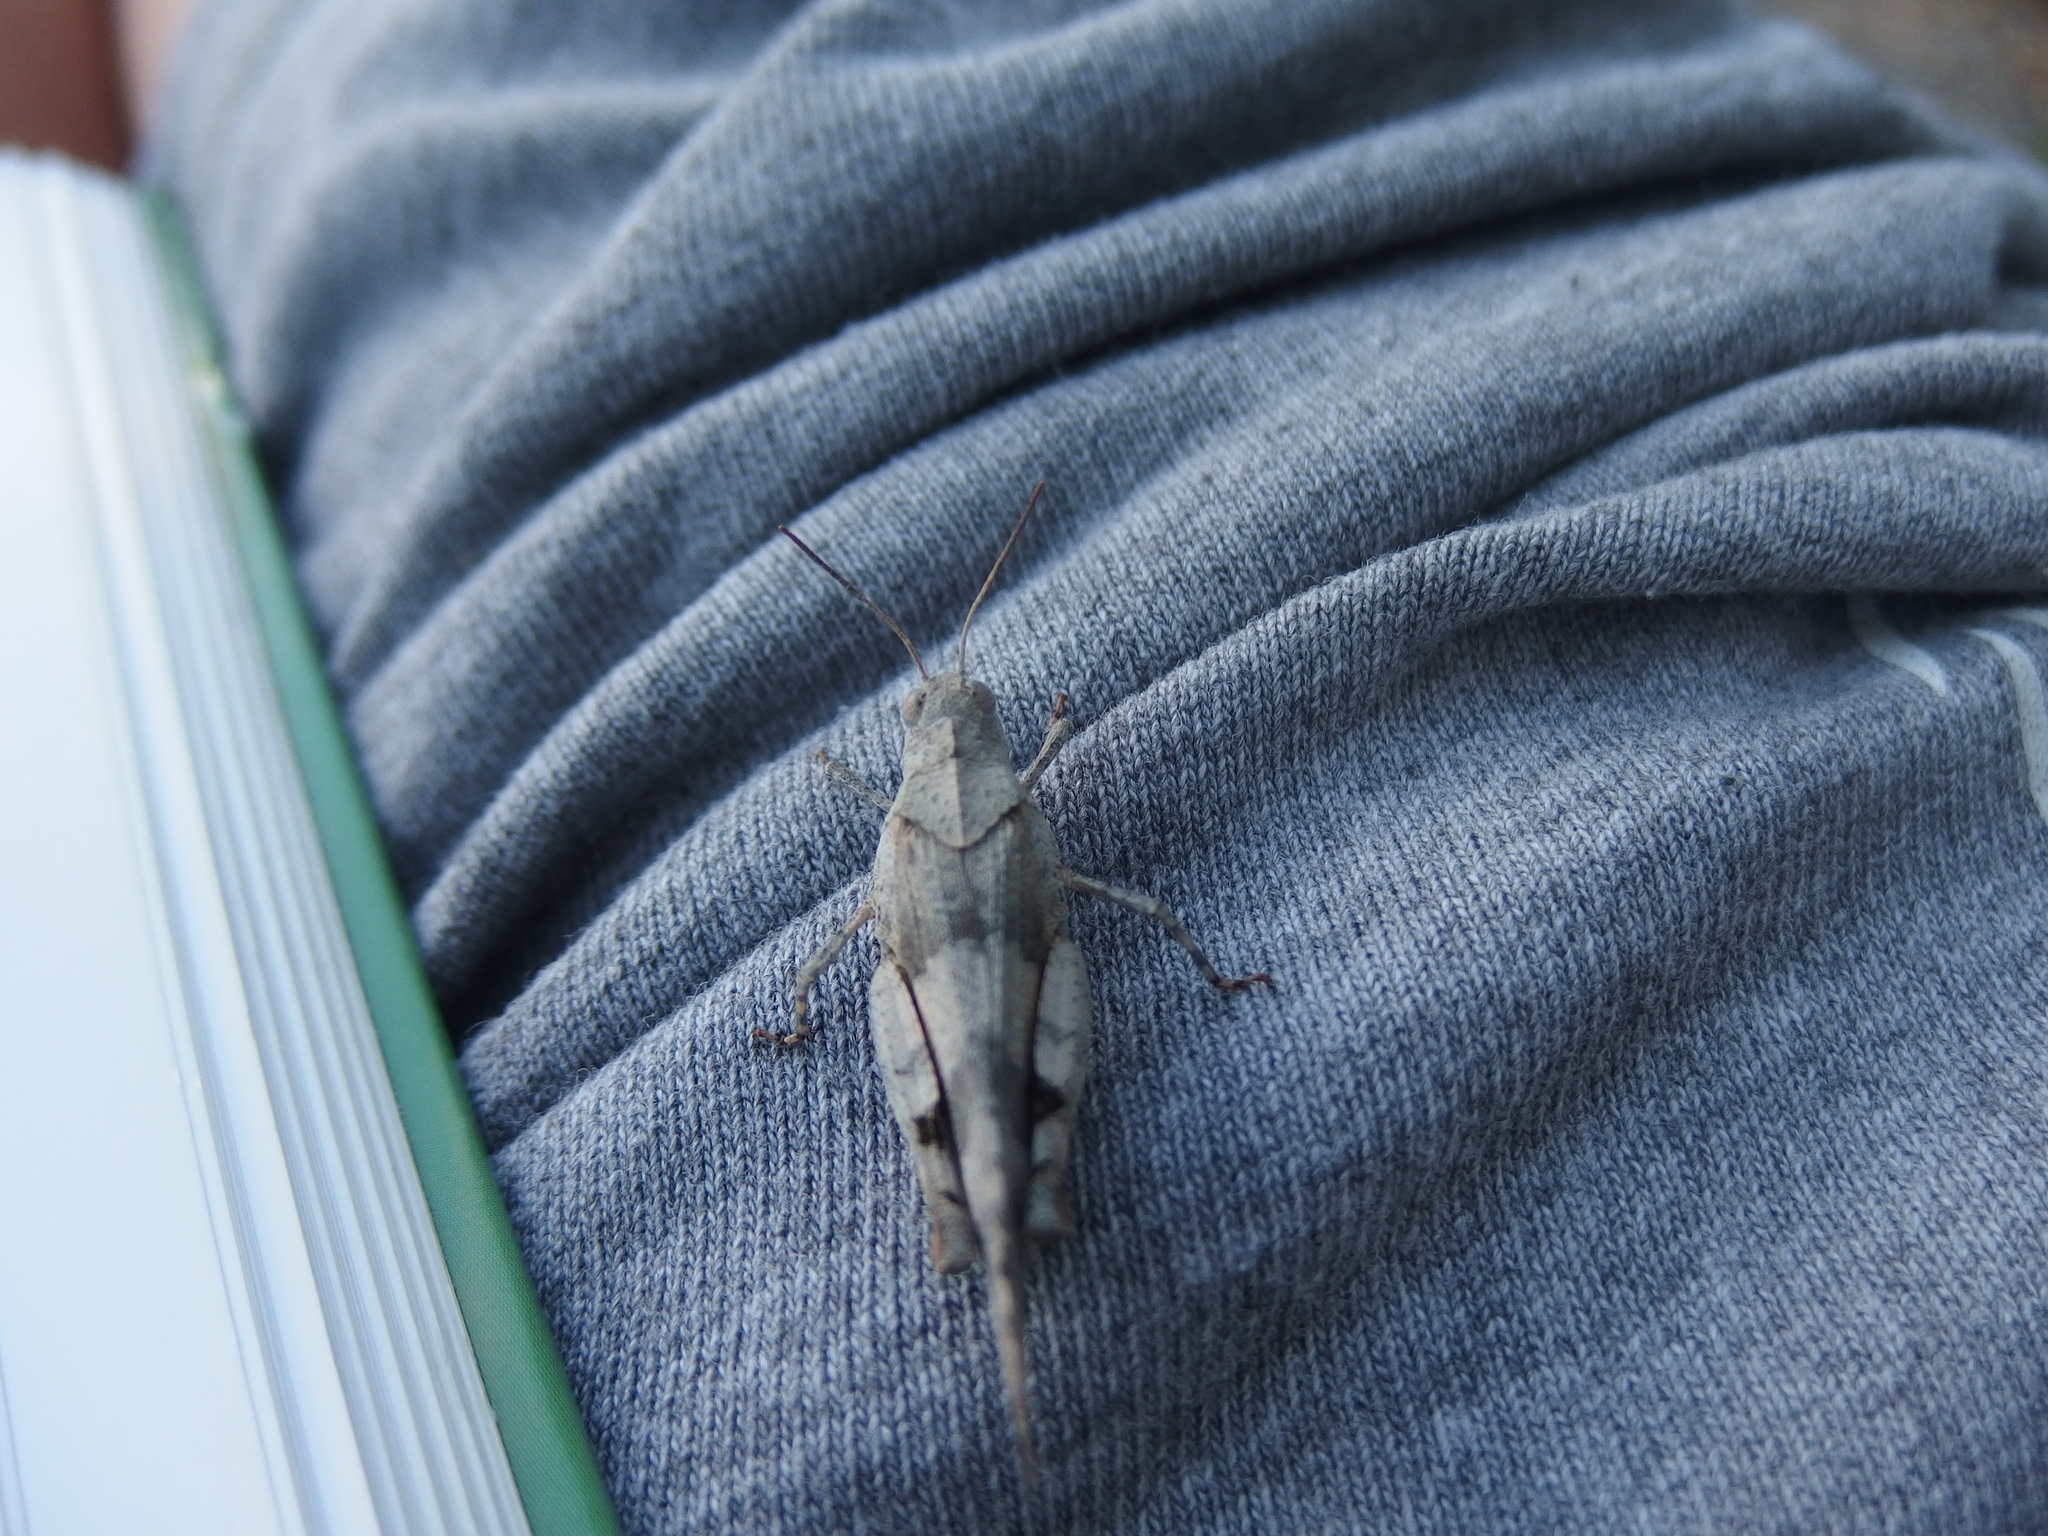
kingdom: Animalia
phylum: Arthropoda
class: Insecta
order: Orthoptera
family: Acrididae
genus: Oedipoda
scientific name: Oedipoda caerulescens
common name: Blue-winged grasshopper
